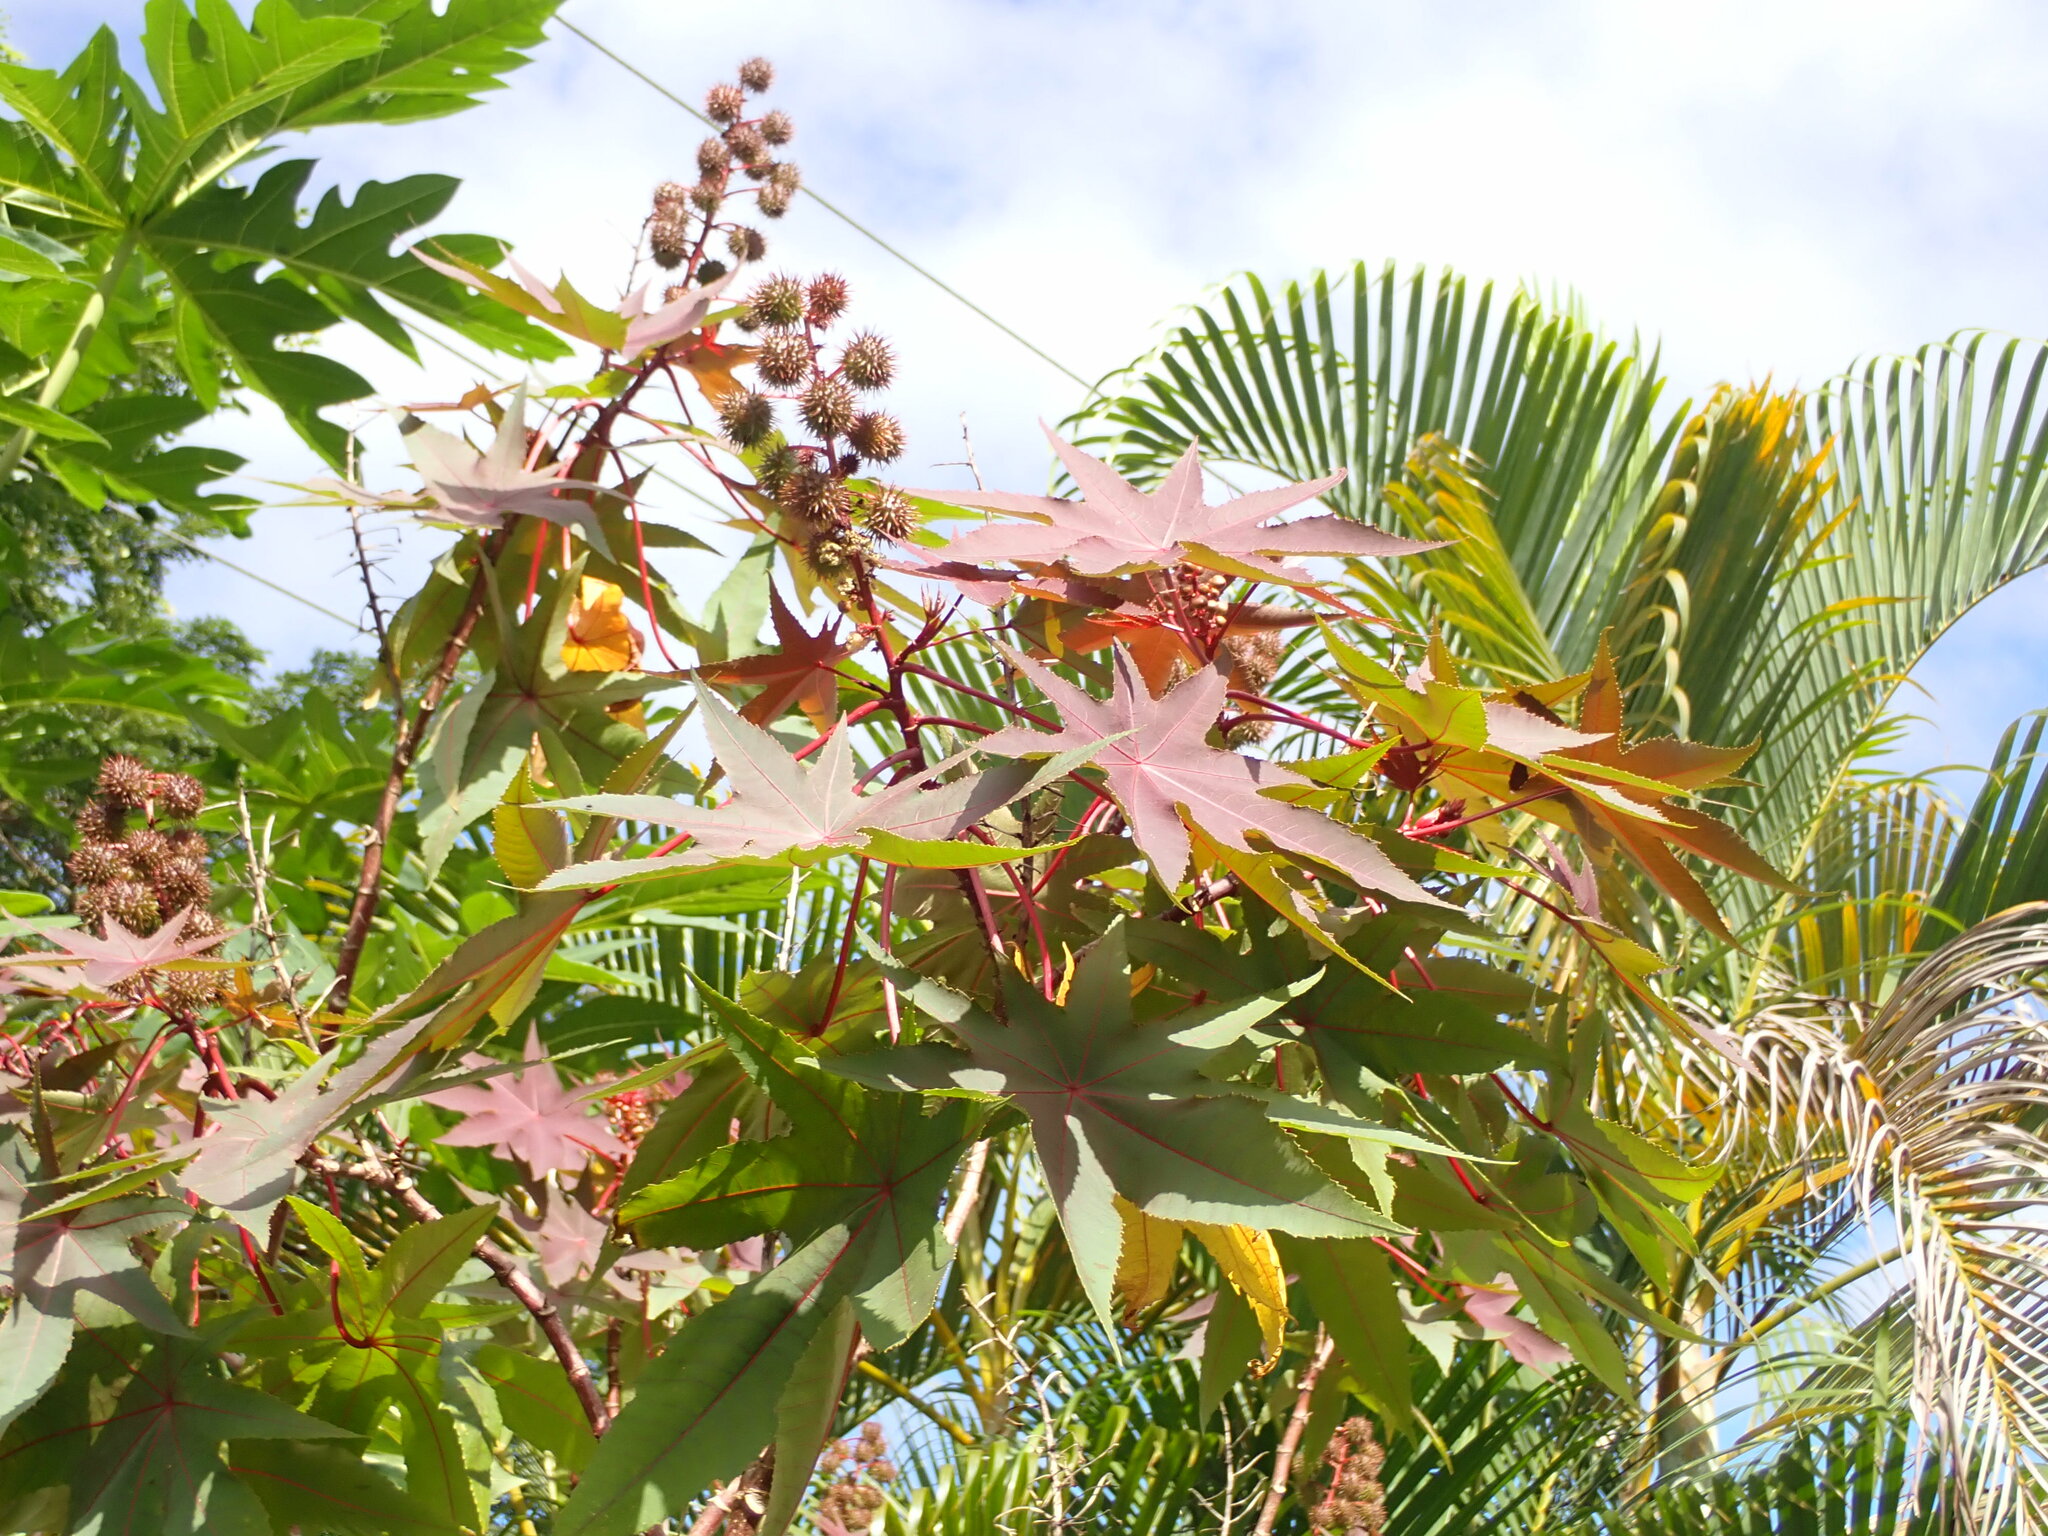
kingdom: Plantae
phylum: Tracheophyta
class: Magnoliopsida
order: Malpighiales
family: Euphorbiaceae
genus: Ricinus
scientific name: Ricinus communis
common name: Castor-oil-plant
